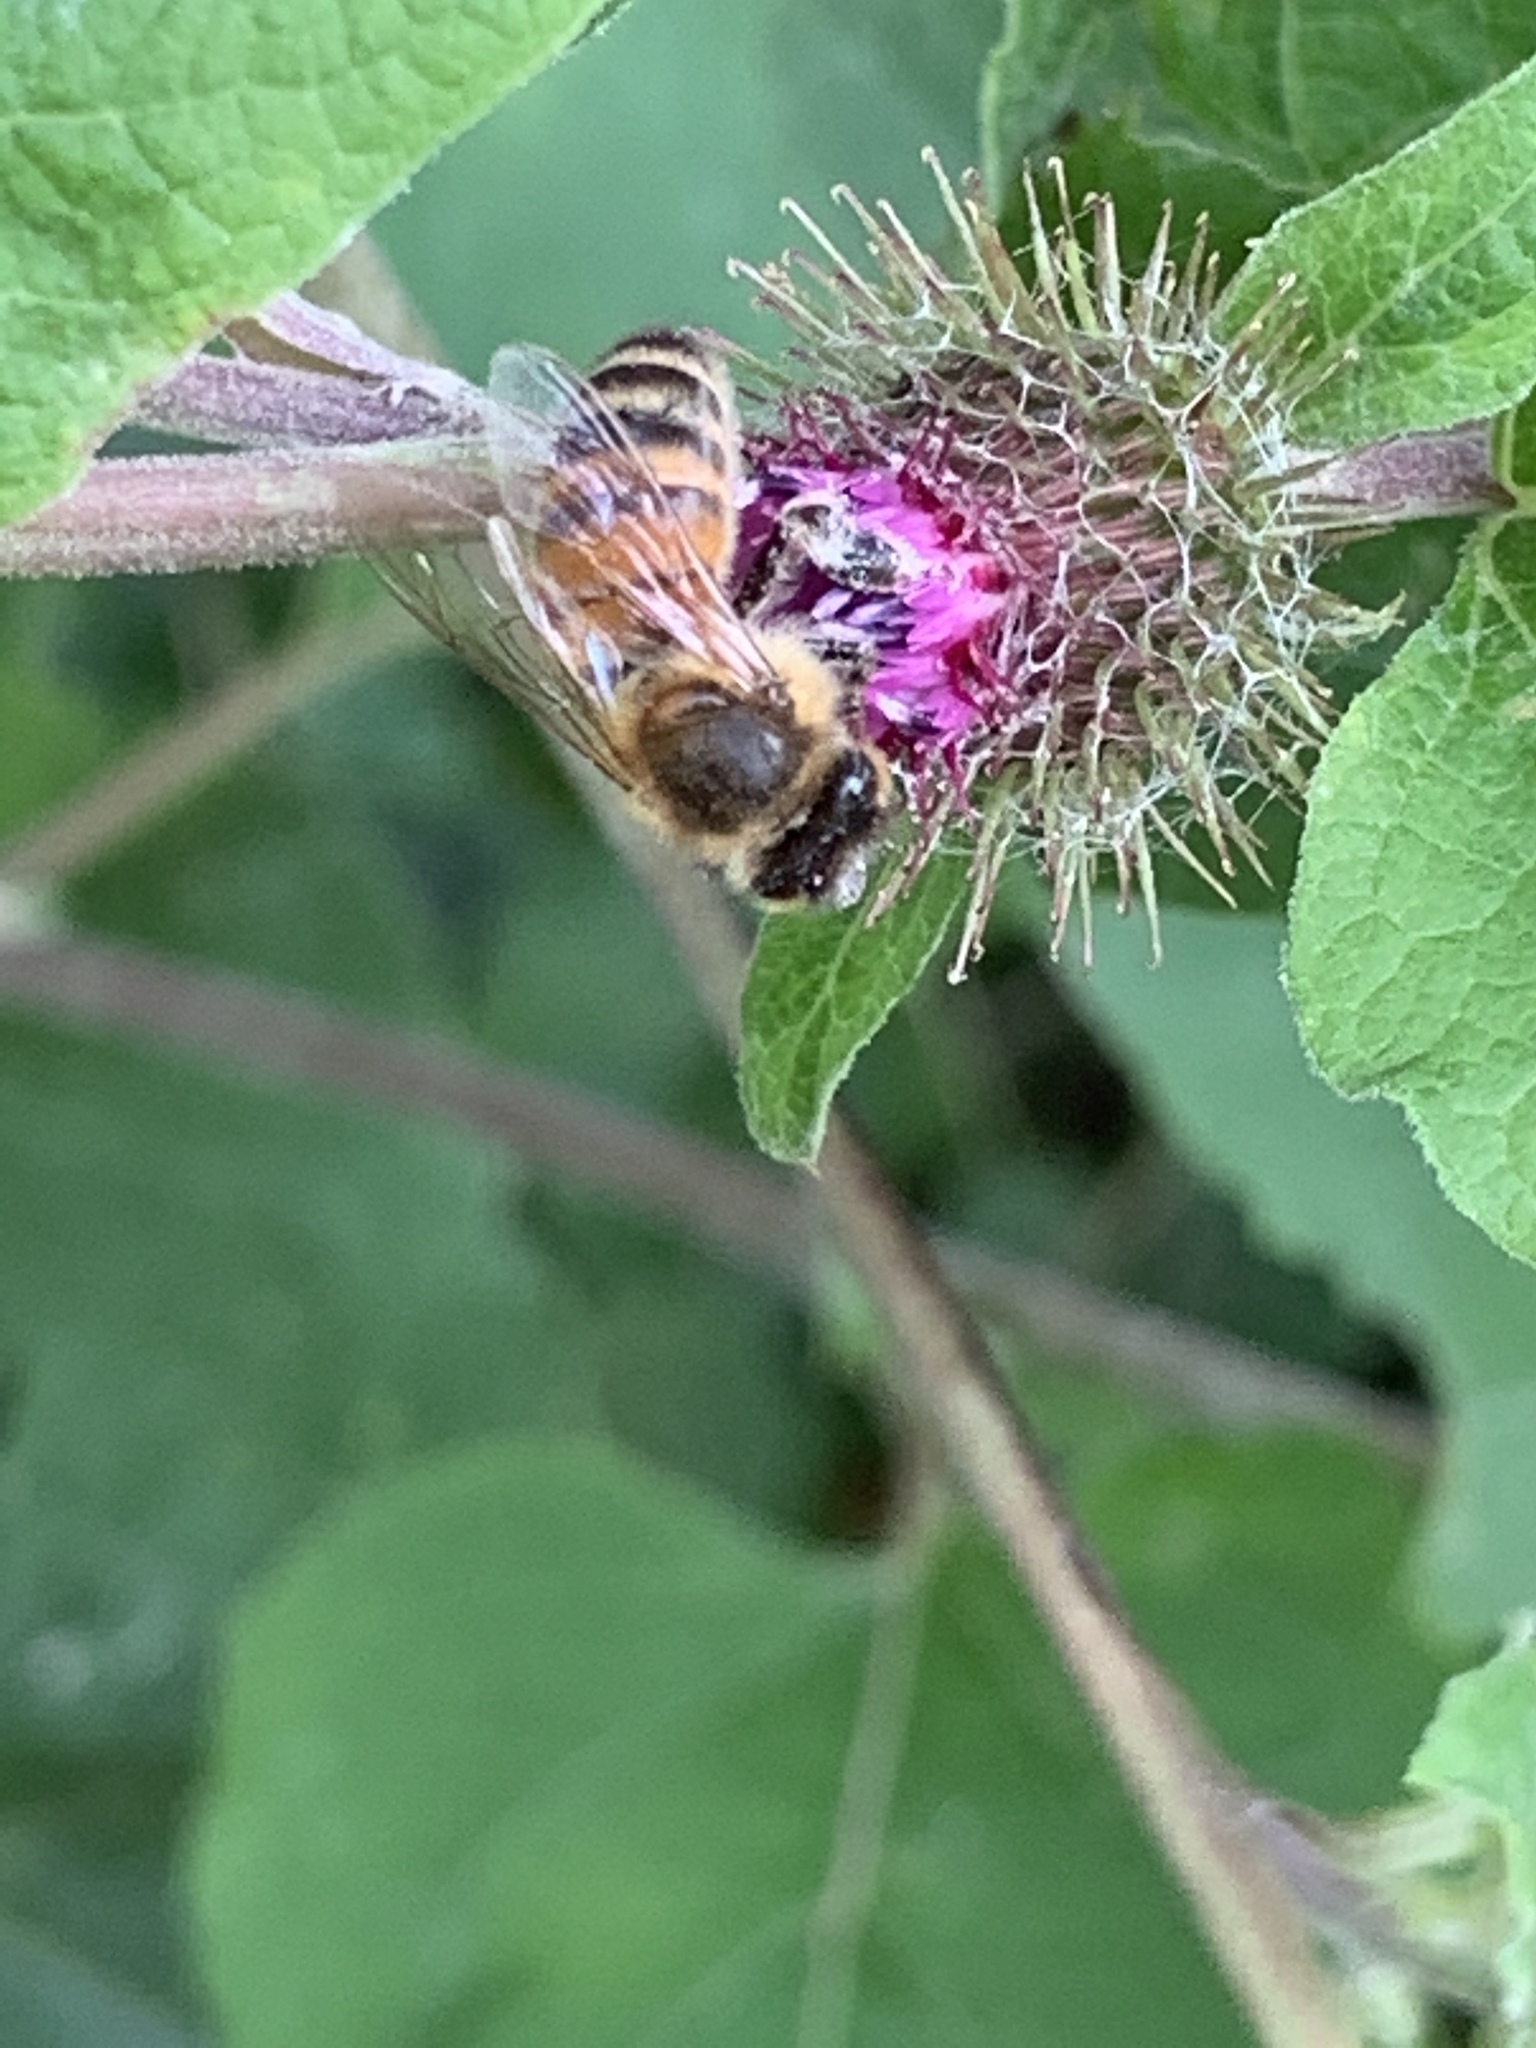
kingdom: Animalia
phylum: Arthropoda
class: Insecta
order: Hymenoptera
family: Apidae
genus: Apis
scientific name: Apis mellifera
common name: Honey bee
